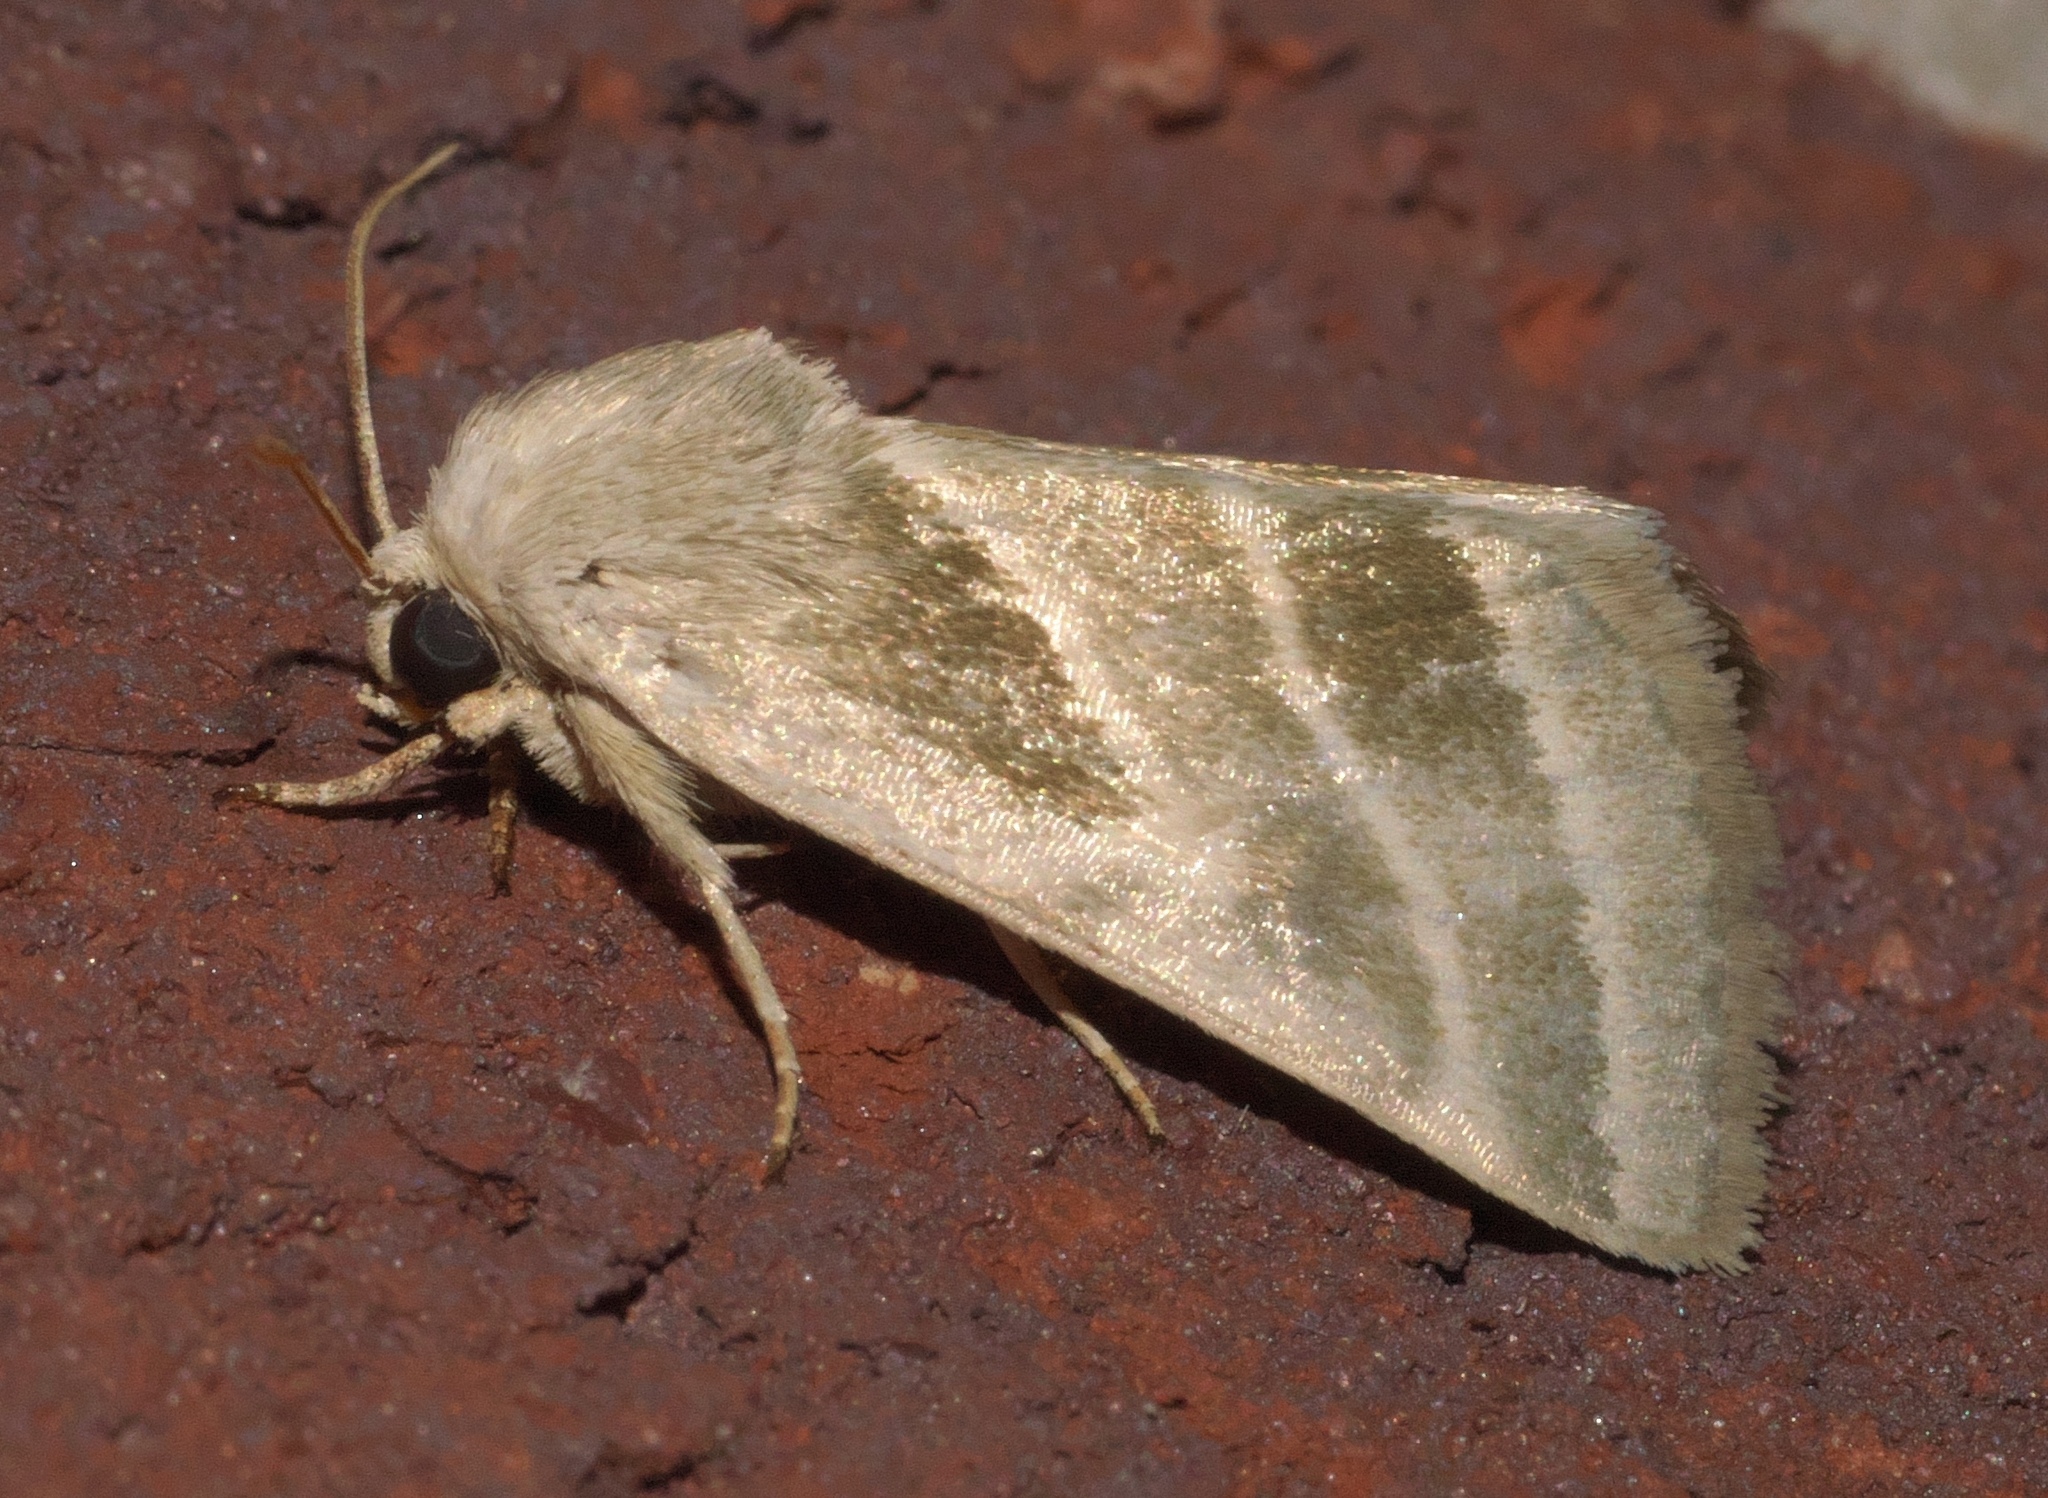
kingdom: Animalia
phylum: Arthropoda
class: Insecta
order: Lepidoptera
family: Noctuidae
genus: Schinia
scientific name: Schinia trifascia
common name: Three-lined flower moth
